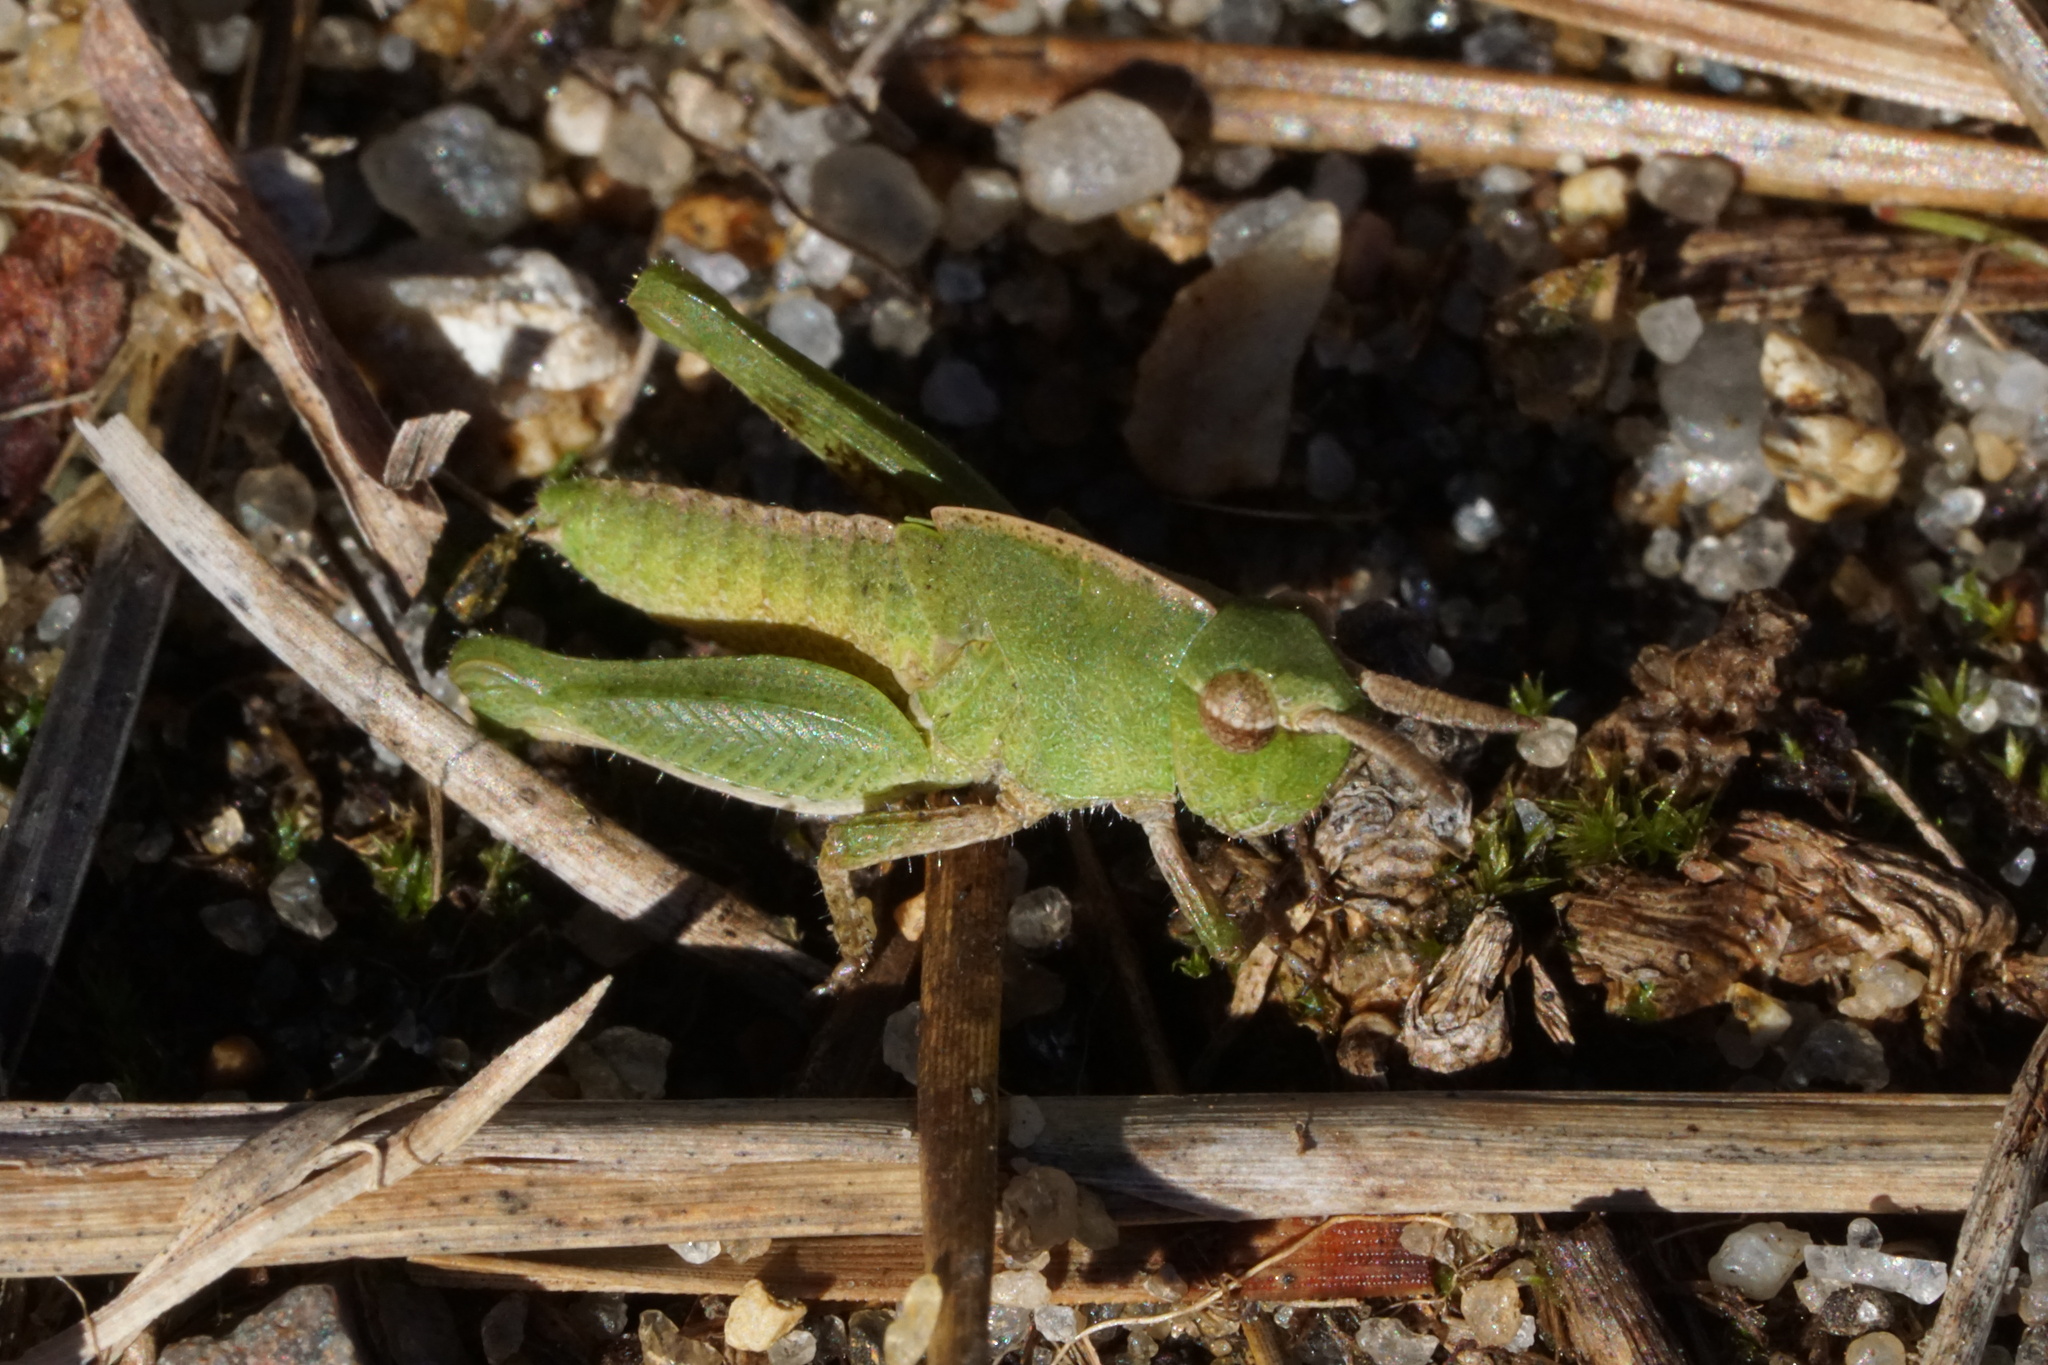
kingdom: Animalia
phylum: Arthropoda
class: Insecta
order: Orthoptera
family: Acrididae
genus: Chortophaga
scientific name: Chortophaga viridifasciata
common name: Green-striped grasshopper
